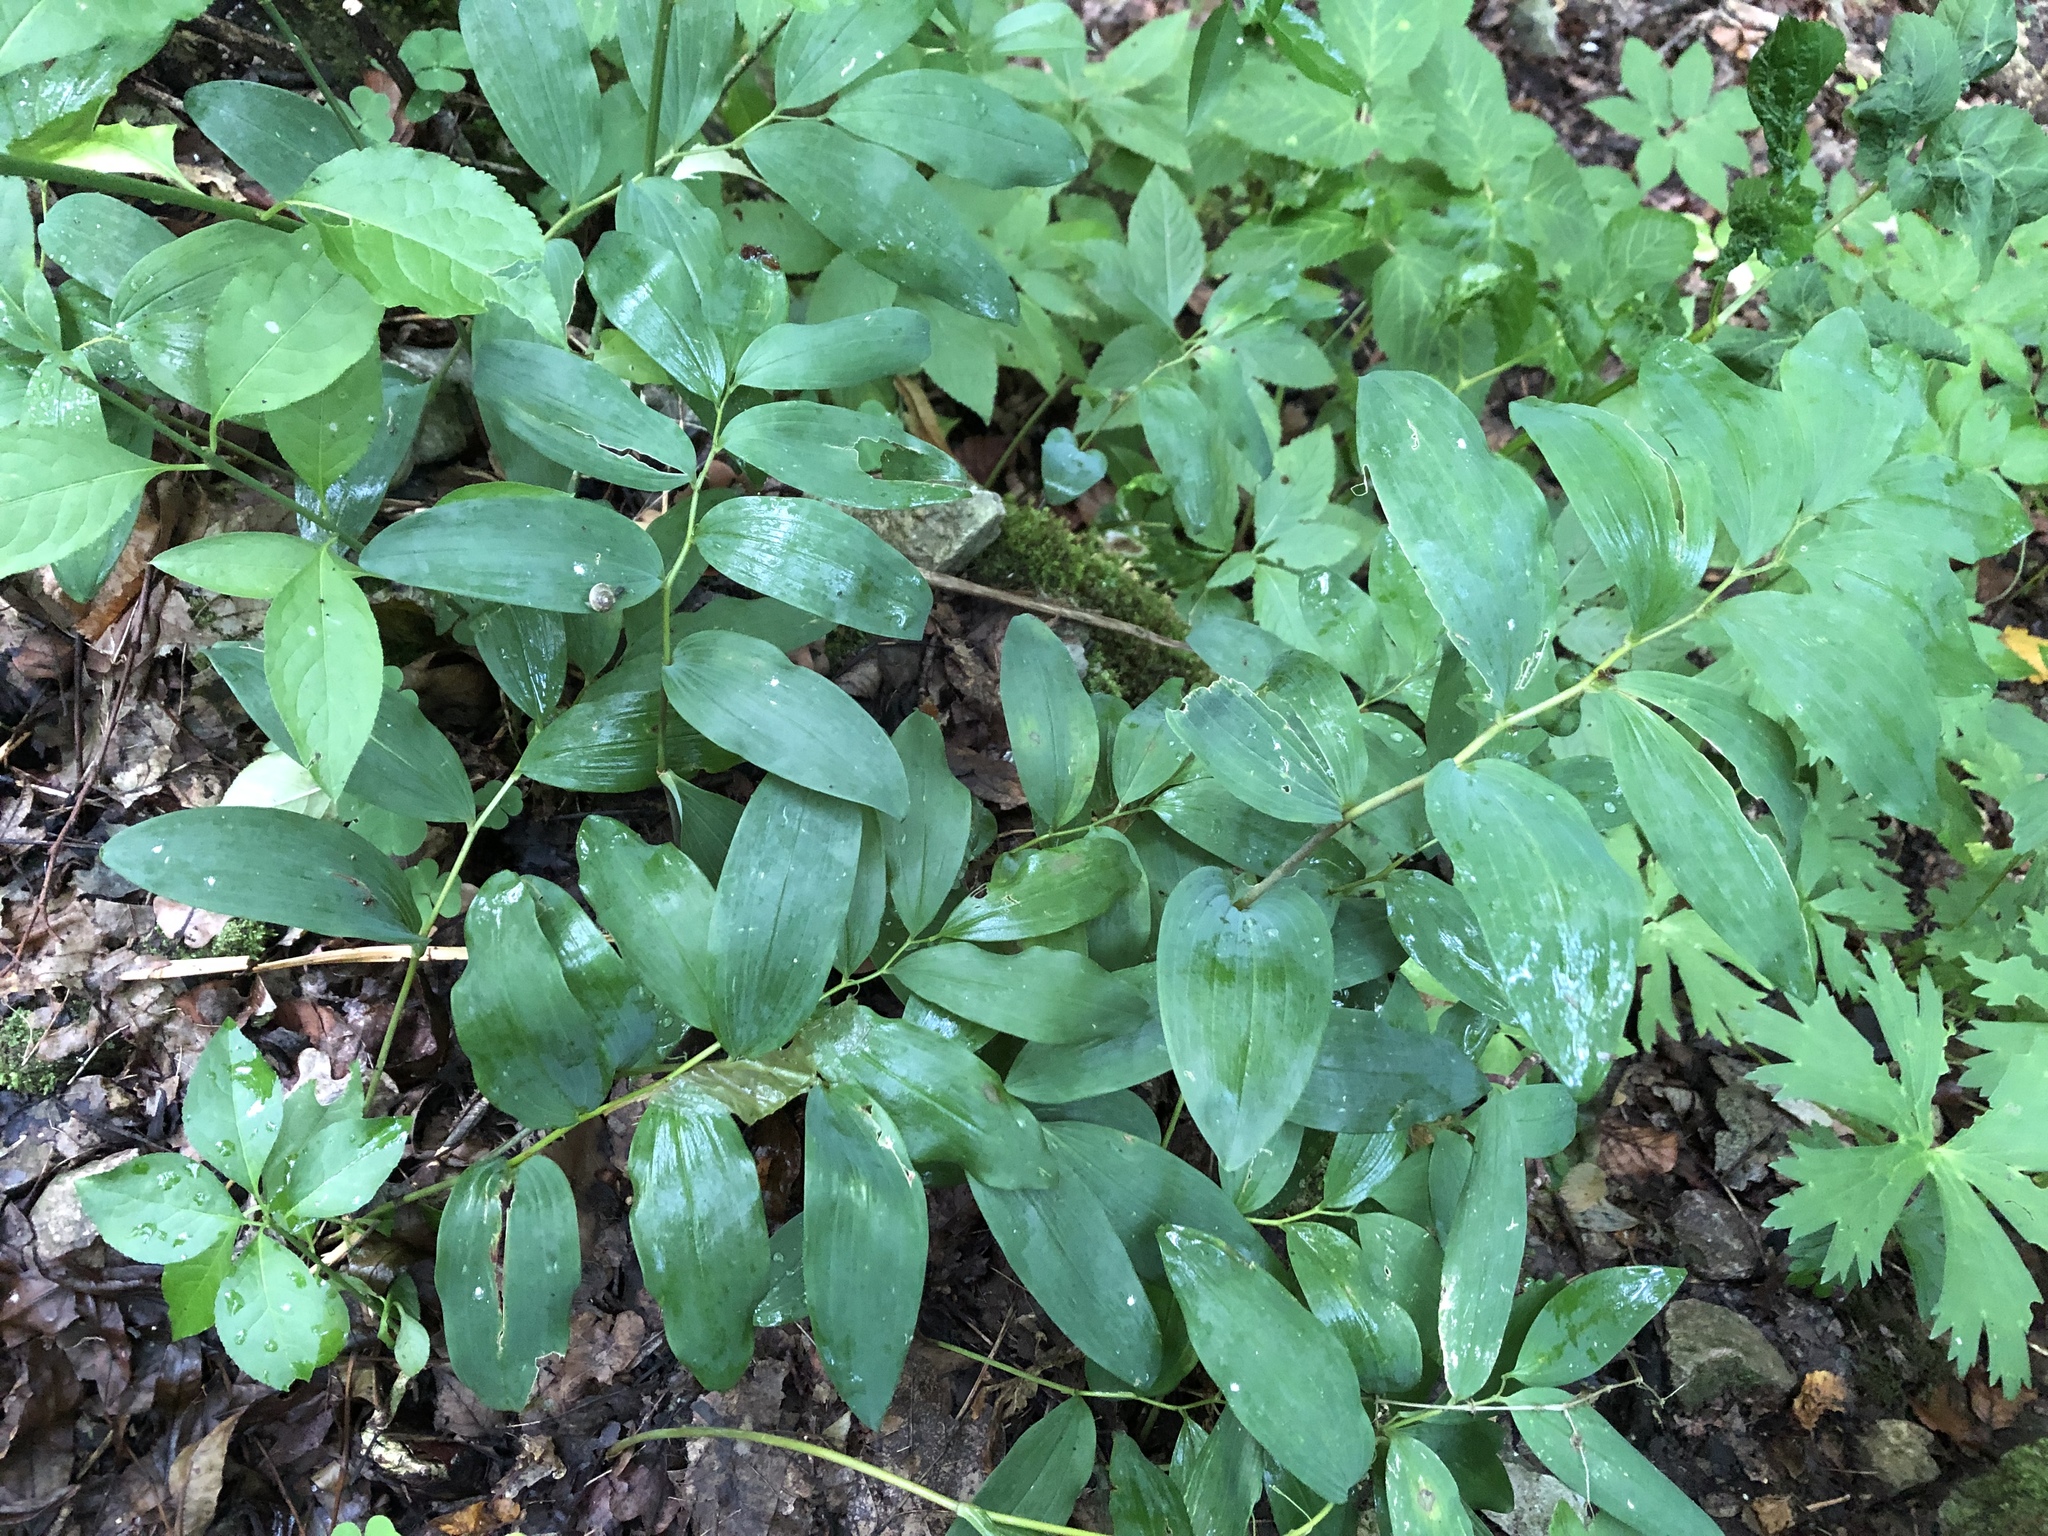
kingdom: Plantae
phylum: Tracheophyta
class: Liliopsida
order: Asparagales
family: Asparagaceae
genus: Polygonatum
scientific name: Polygonatum multiflorum
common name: Solomon's-seal
